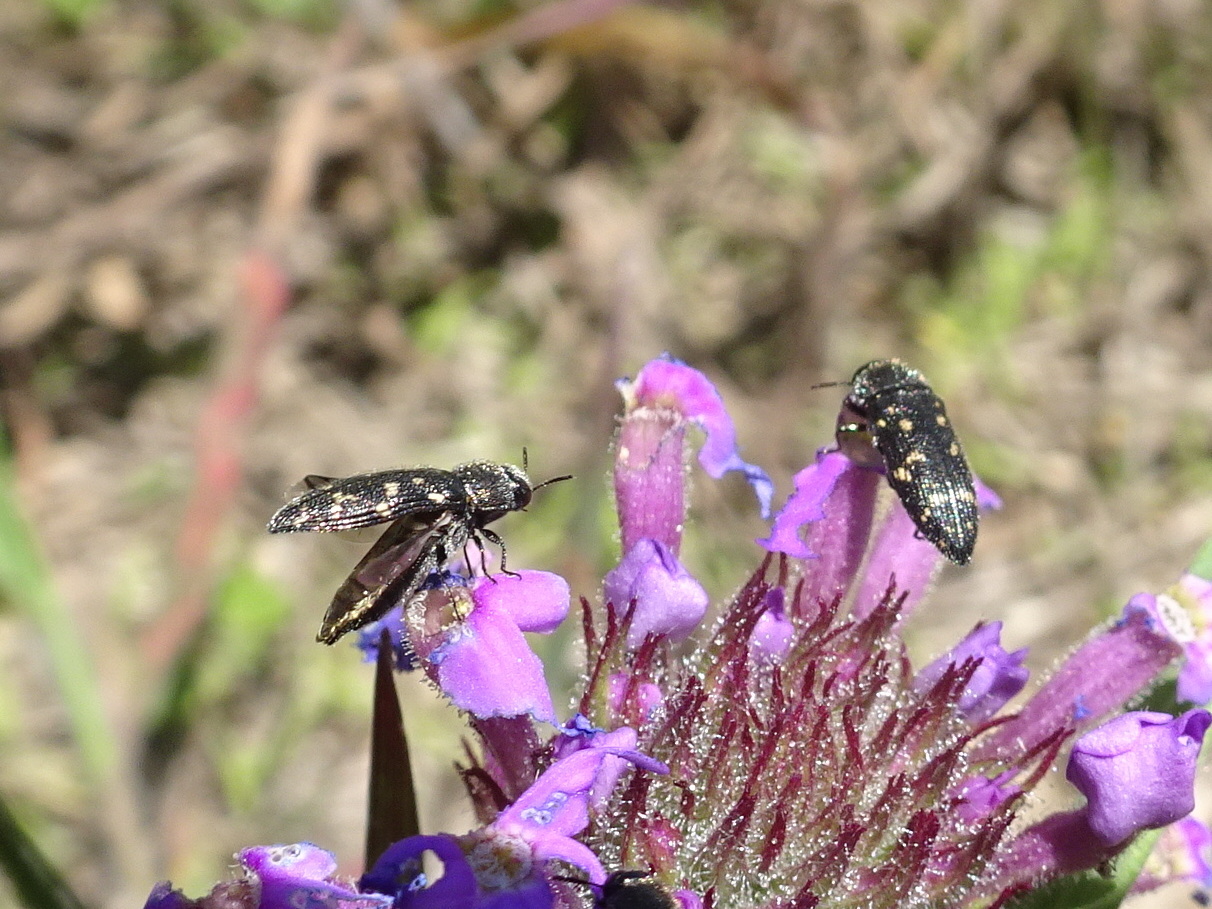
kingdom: Animalia
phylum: Arthropoda
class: Insecta
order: Coleoptera
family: Buprestidae
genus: Acmaeodera
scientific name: Acmaeodera tubulus
